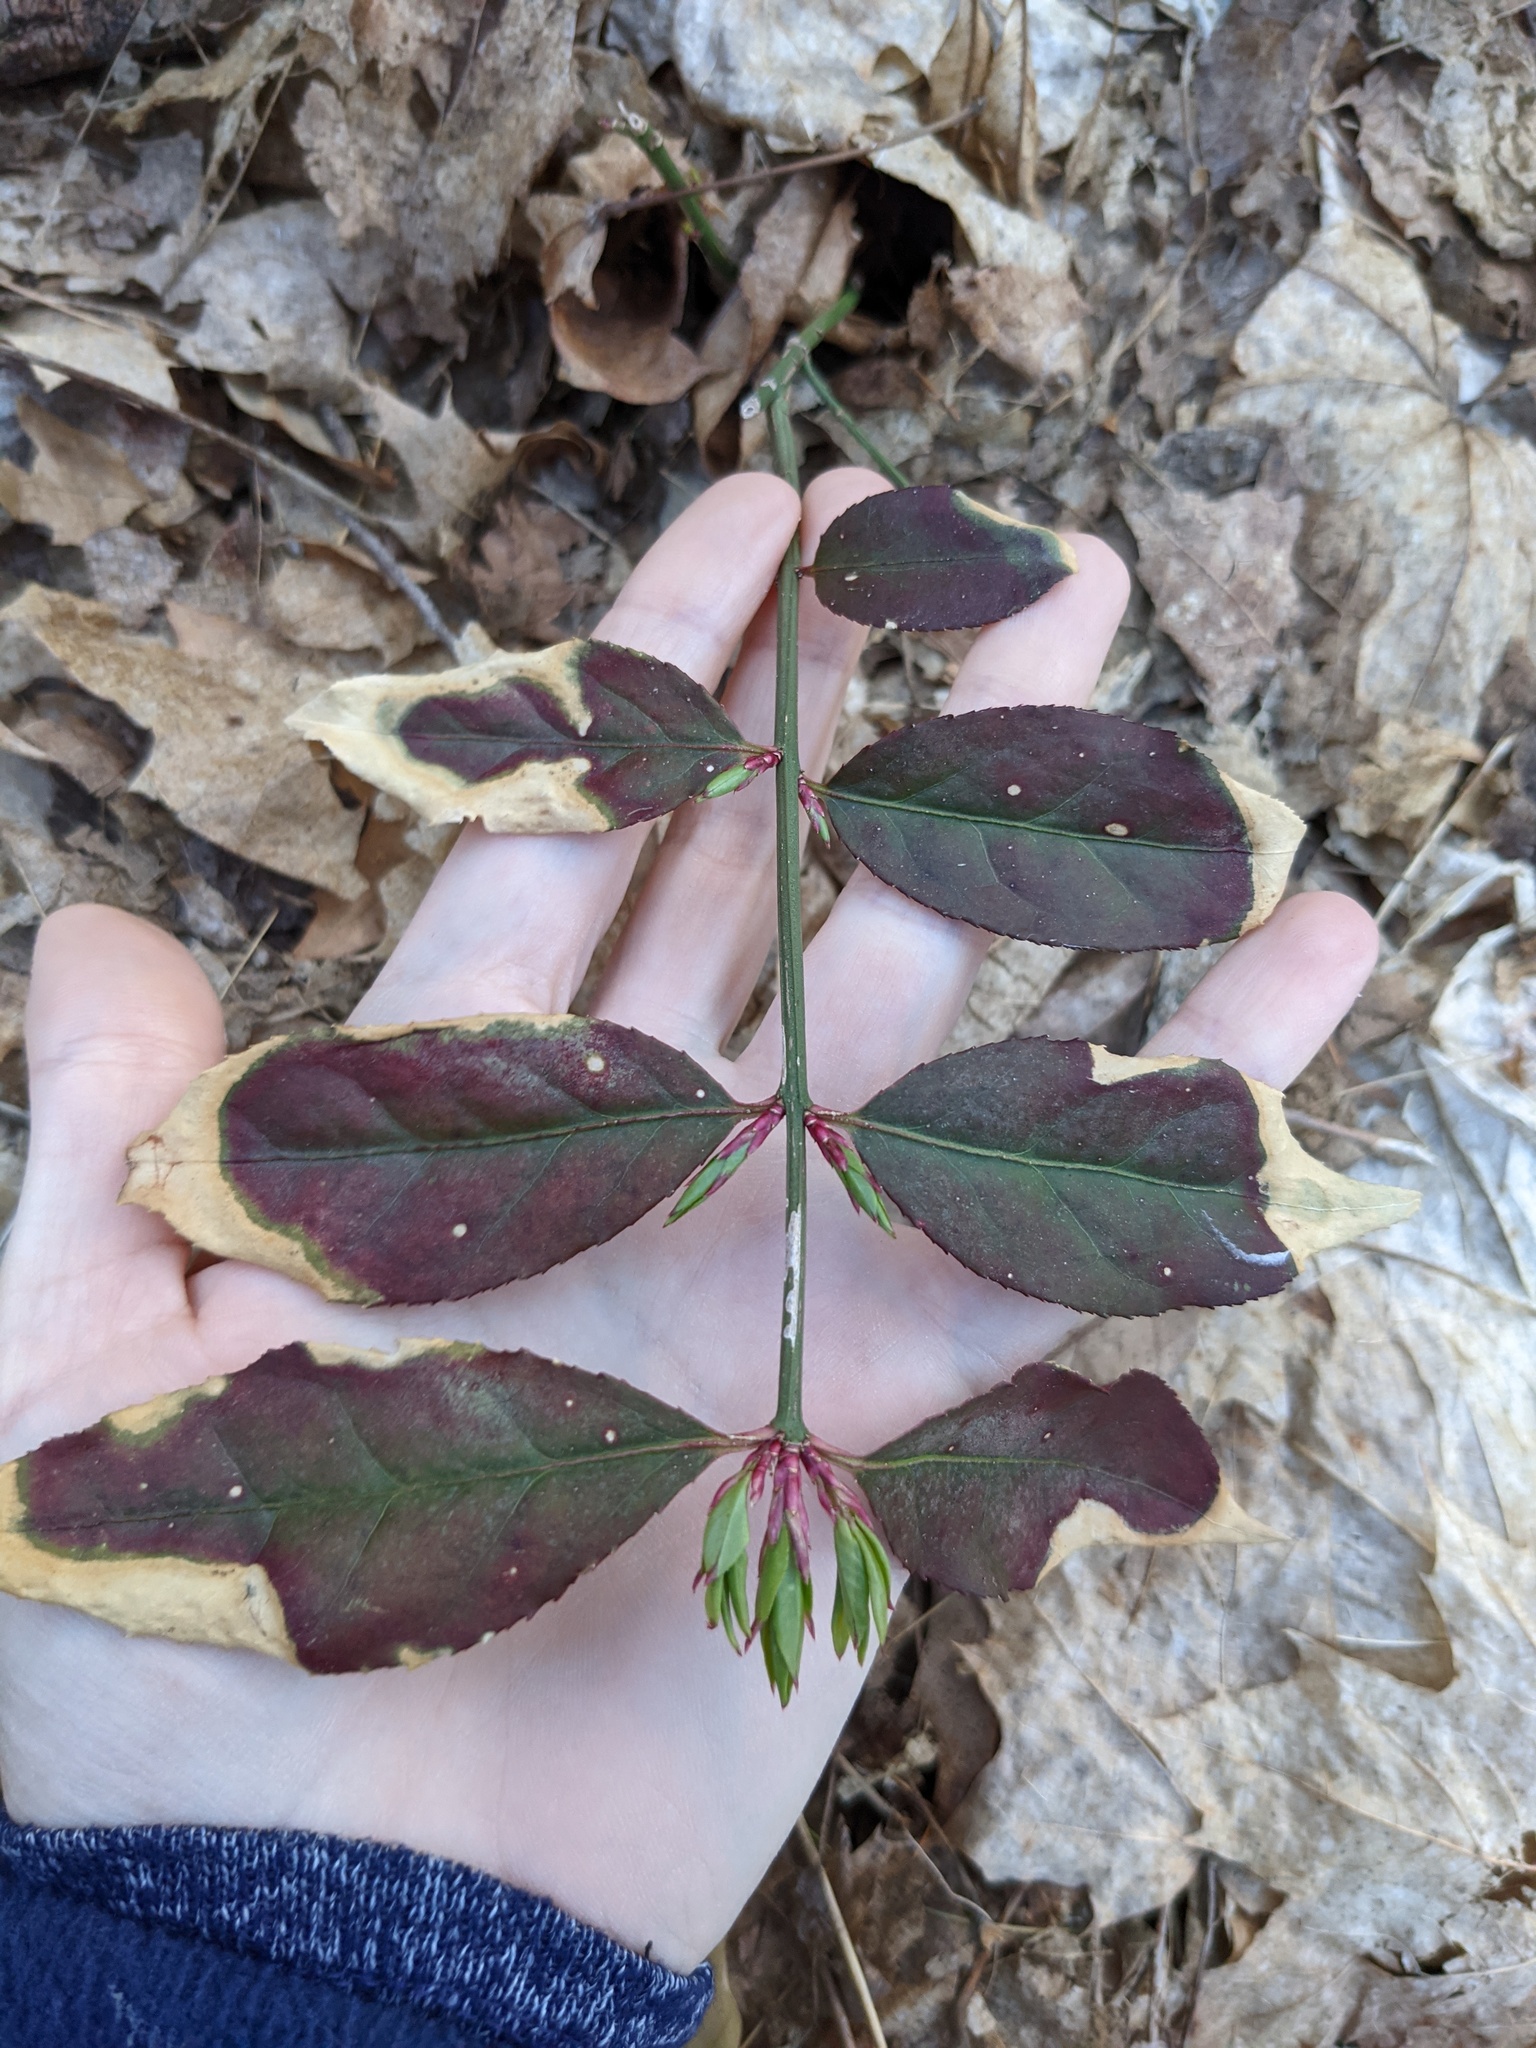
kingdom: Plantae
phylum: Tracheophyta
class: Magnoliopsida
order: Celastrales
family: Celastraceae
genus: Euonymus
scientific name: Euonymus alatus
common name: Winged euonymus
